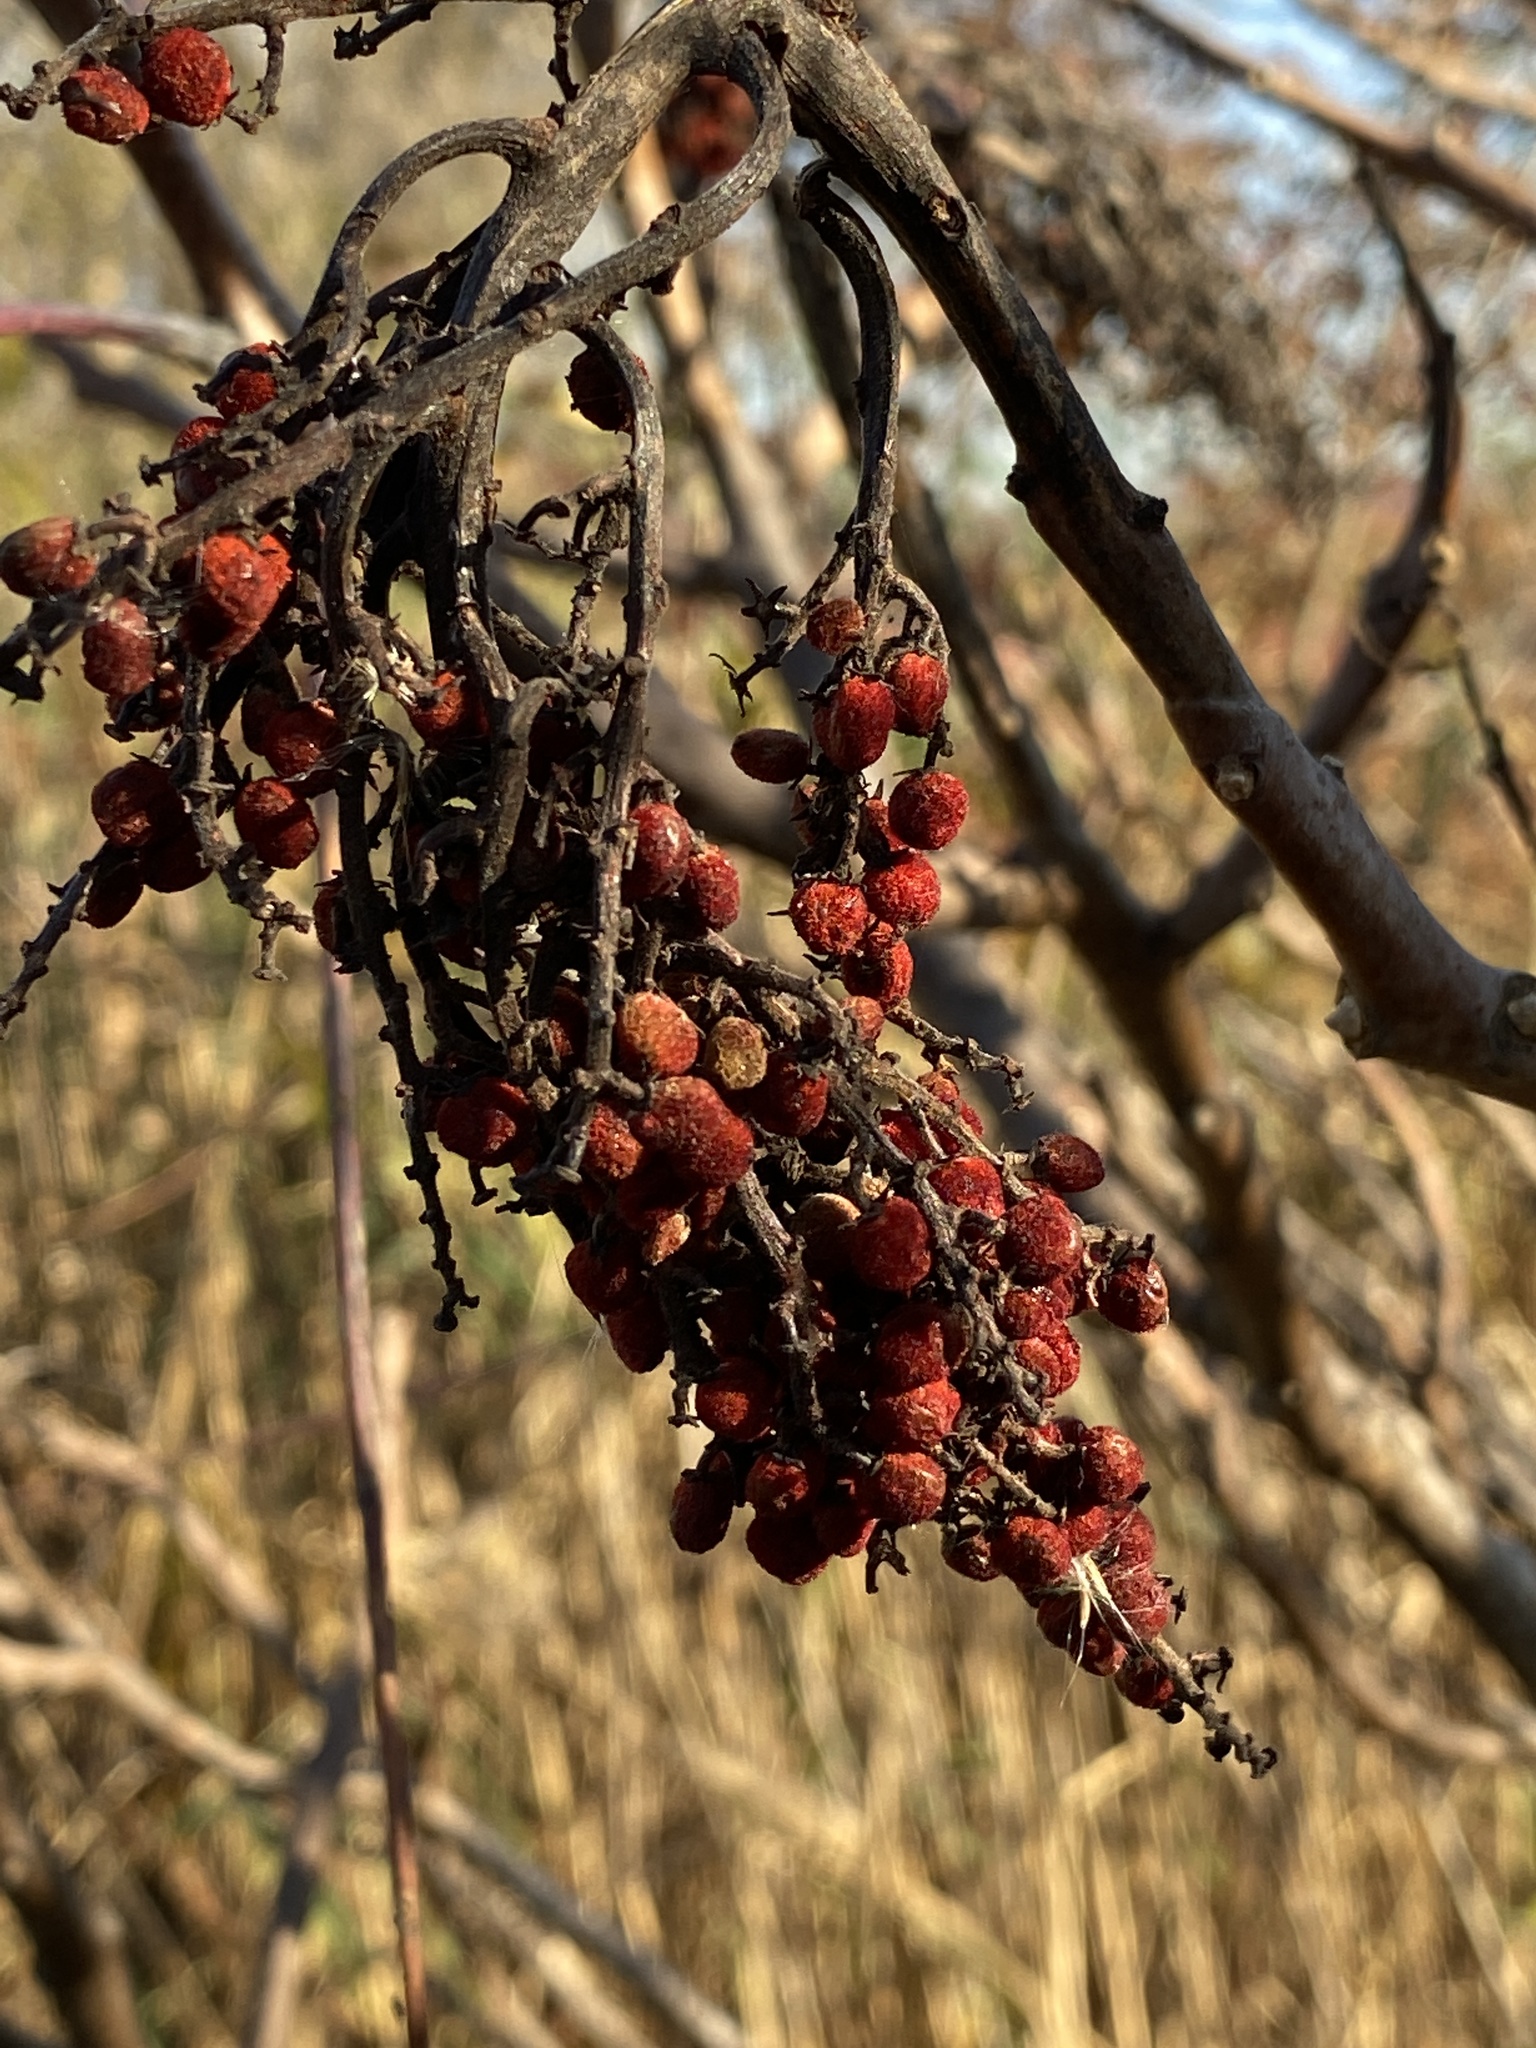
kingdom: Plantae
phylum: Tracheophyta
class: Magnoliopsida
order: Sapindales
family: Anacardiaceae
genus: Rhus
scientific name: Rhus glabra
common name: Scarlet sumac
